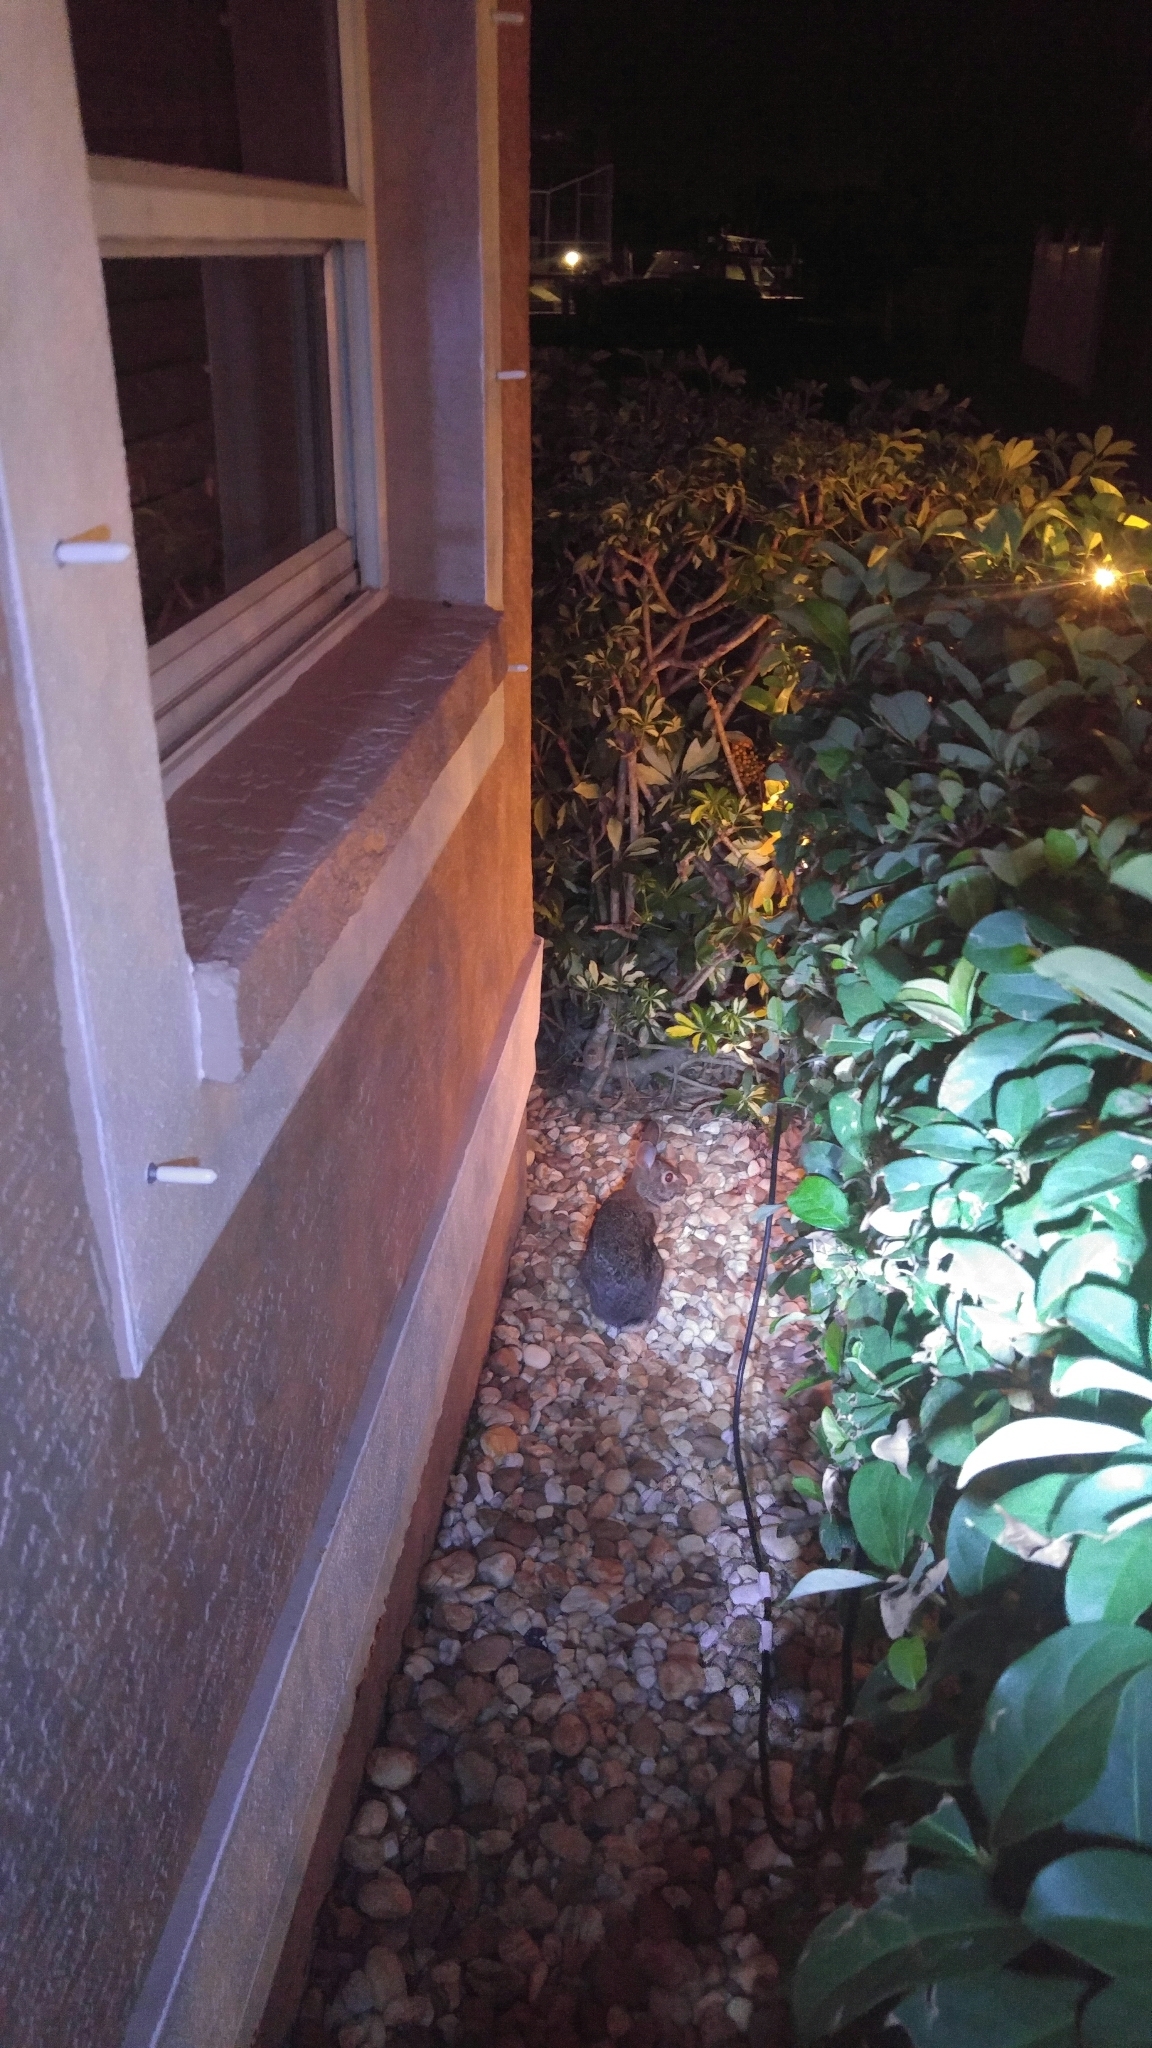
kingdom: Animalia
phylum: Chordata
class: Mammalia
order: Lagomorpha
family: Leporidae
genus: Sylvilagus
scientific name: Sylvilagus floridanus
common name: Eastern cottontail
